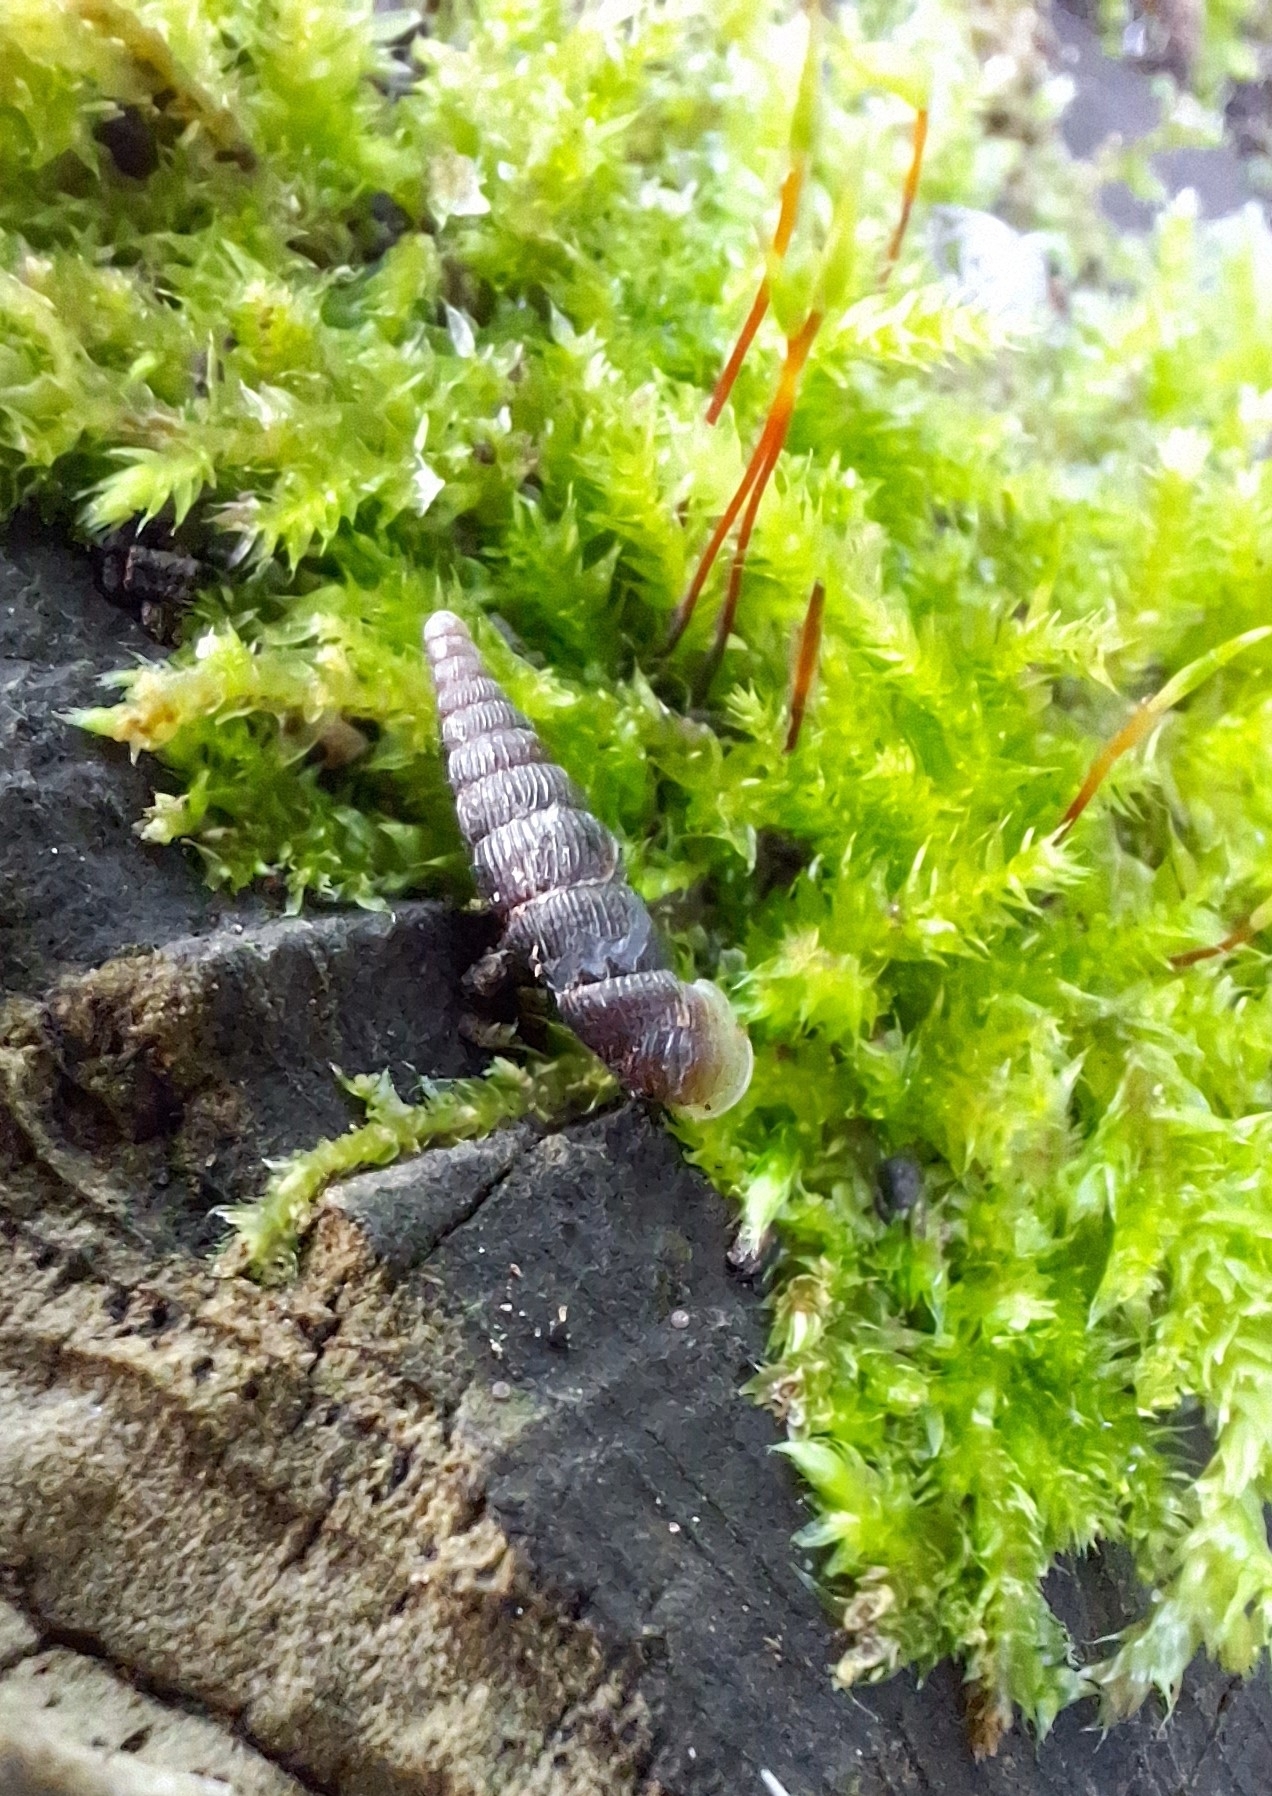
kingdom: Animalia
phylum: Mollusca
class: Gastropoda
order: Stylommatophora
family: Clausiliidae
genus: Macrogastra
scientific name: Macrogastra plicatula
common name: Plicate door snail
